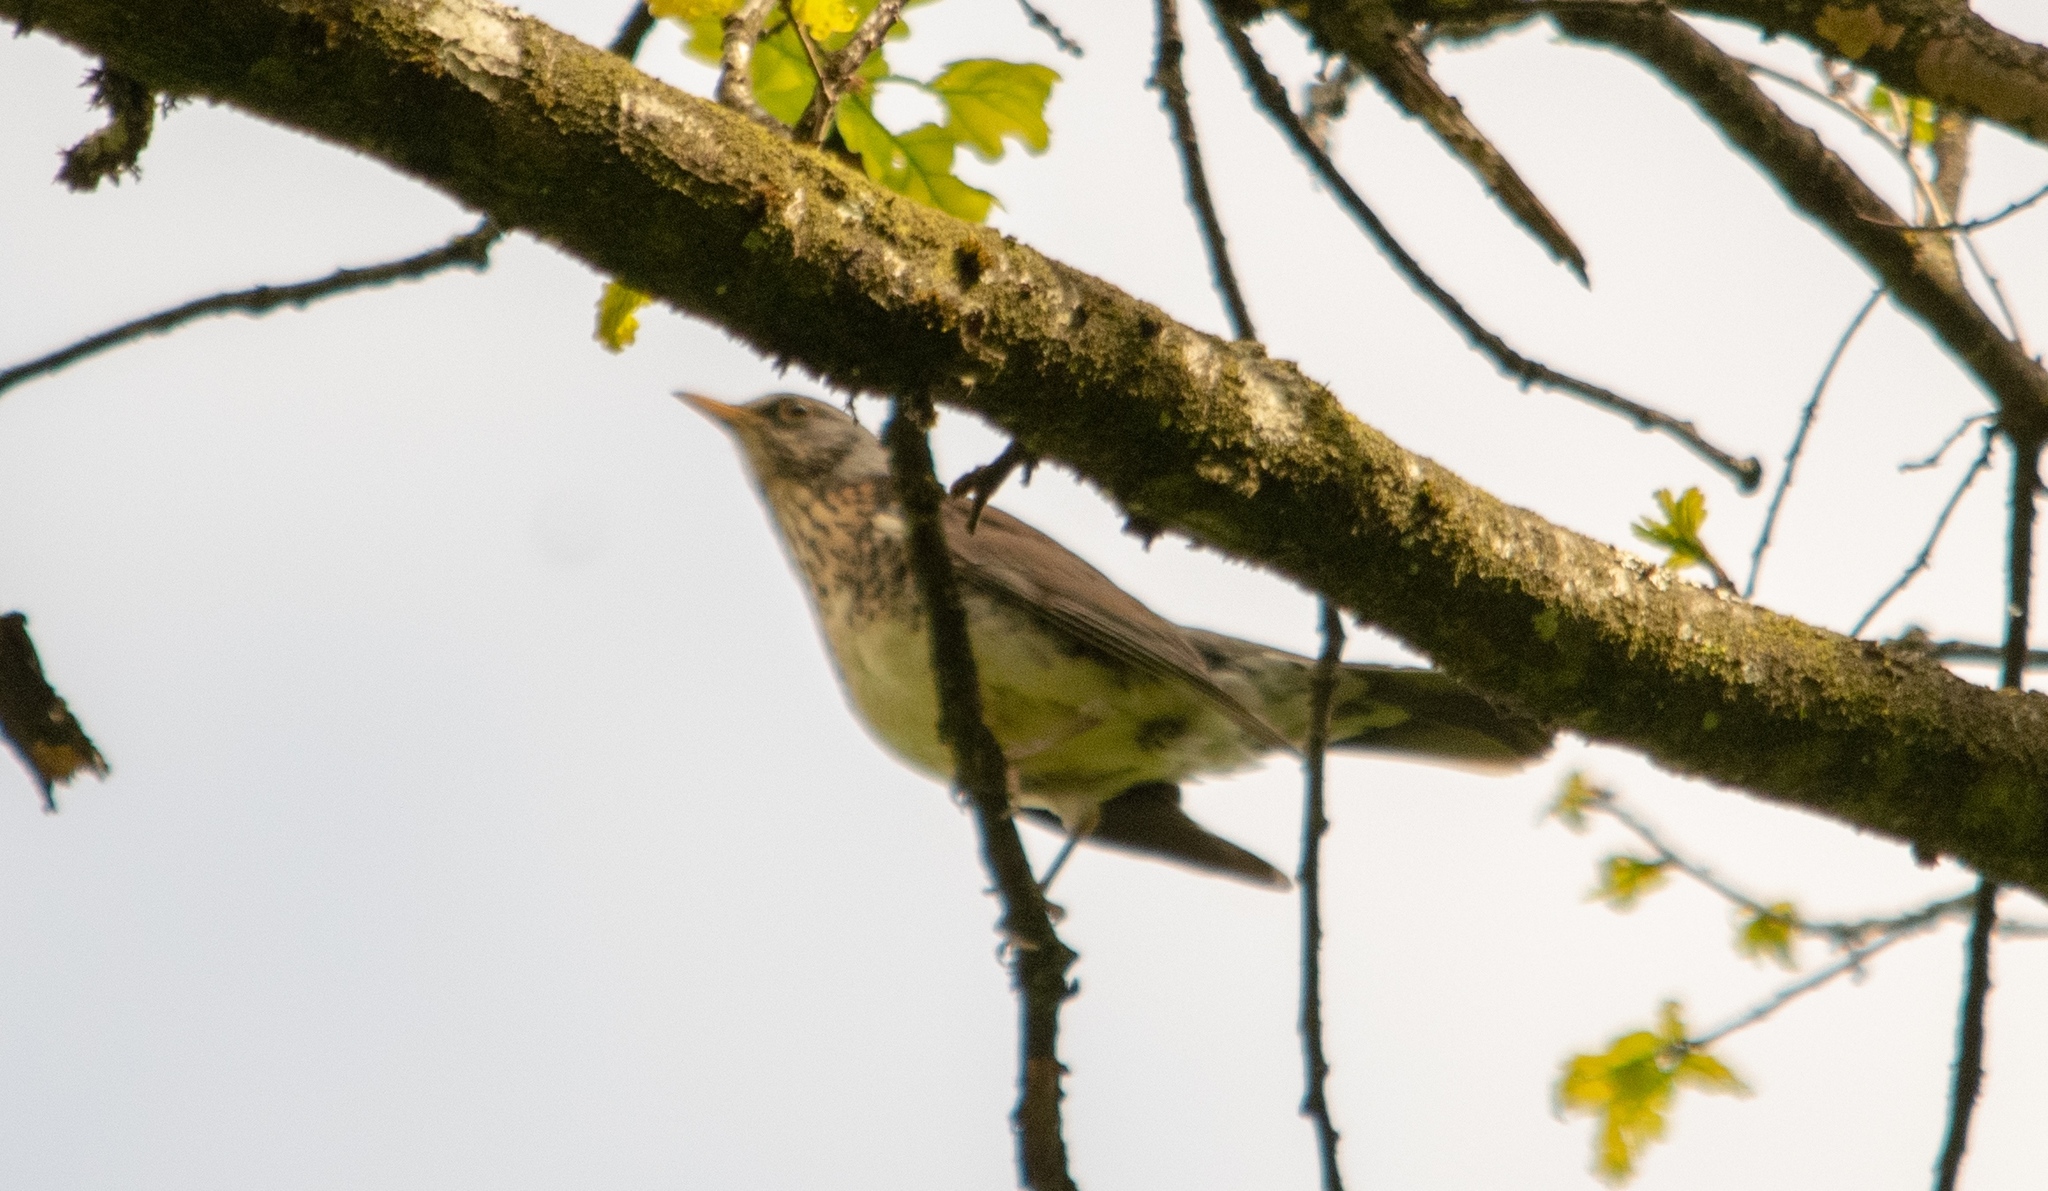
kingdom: Animalia
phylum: Chordata
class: Aves
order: Passeriformes
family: Turdidae
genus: Turdus
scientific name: Turdus pilaris
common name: Fieldfare
